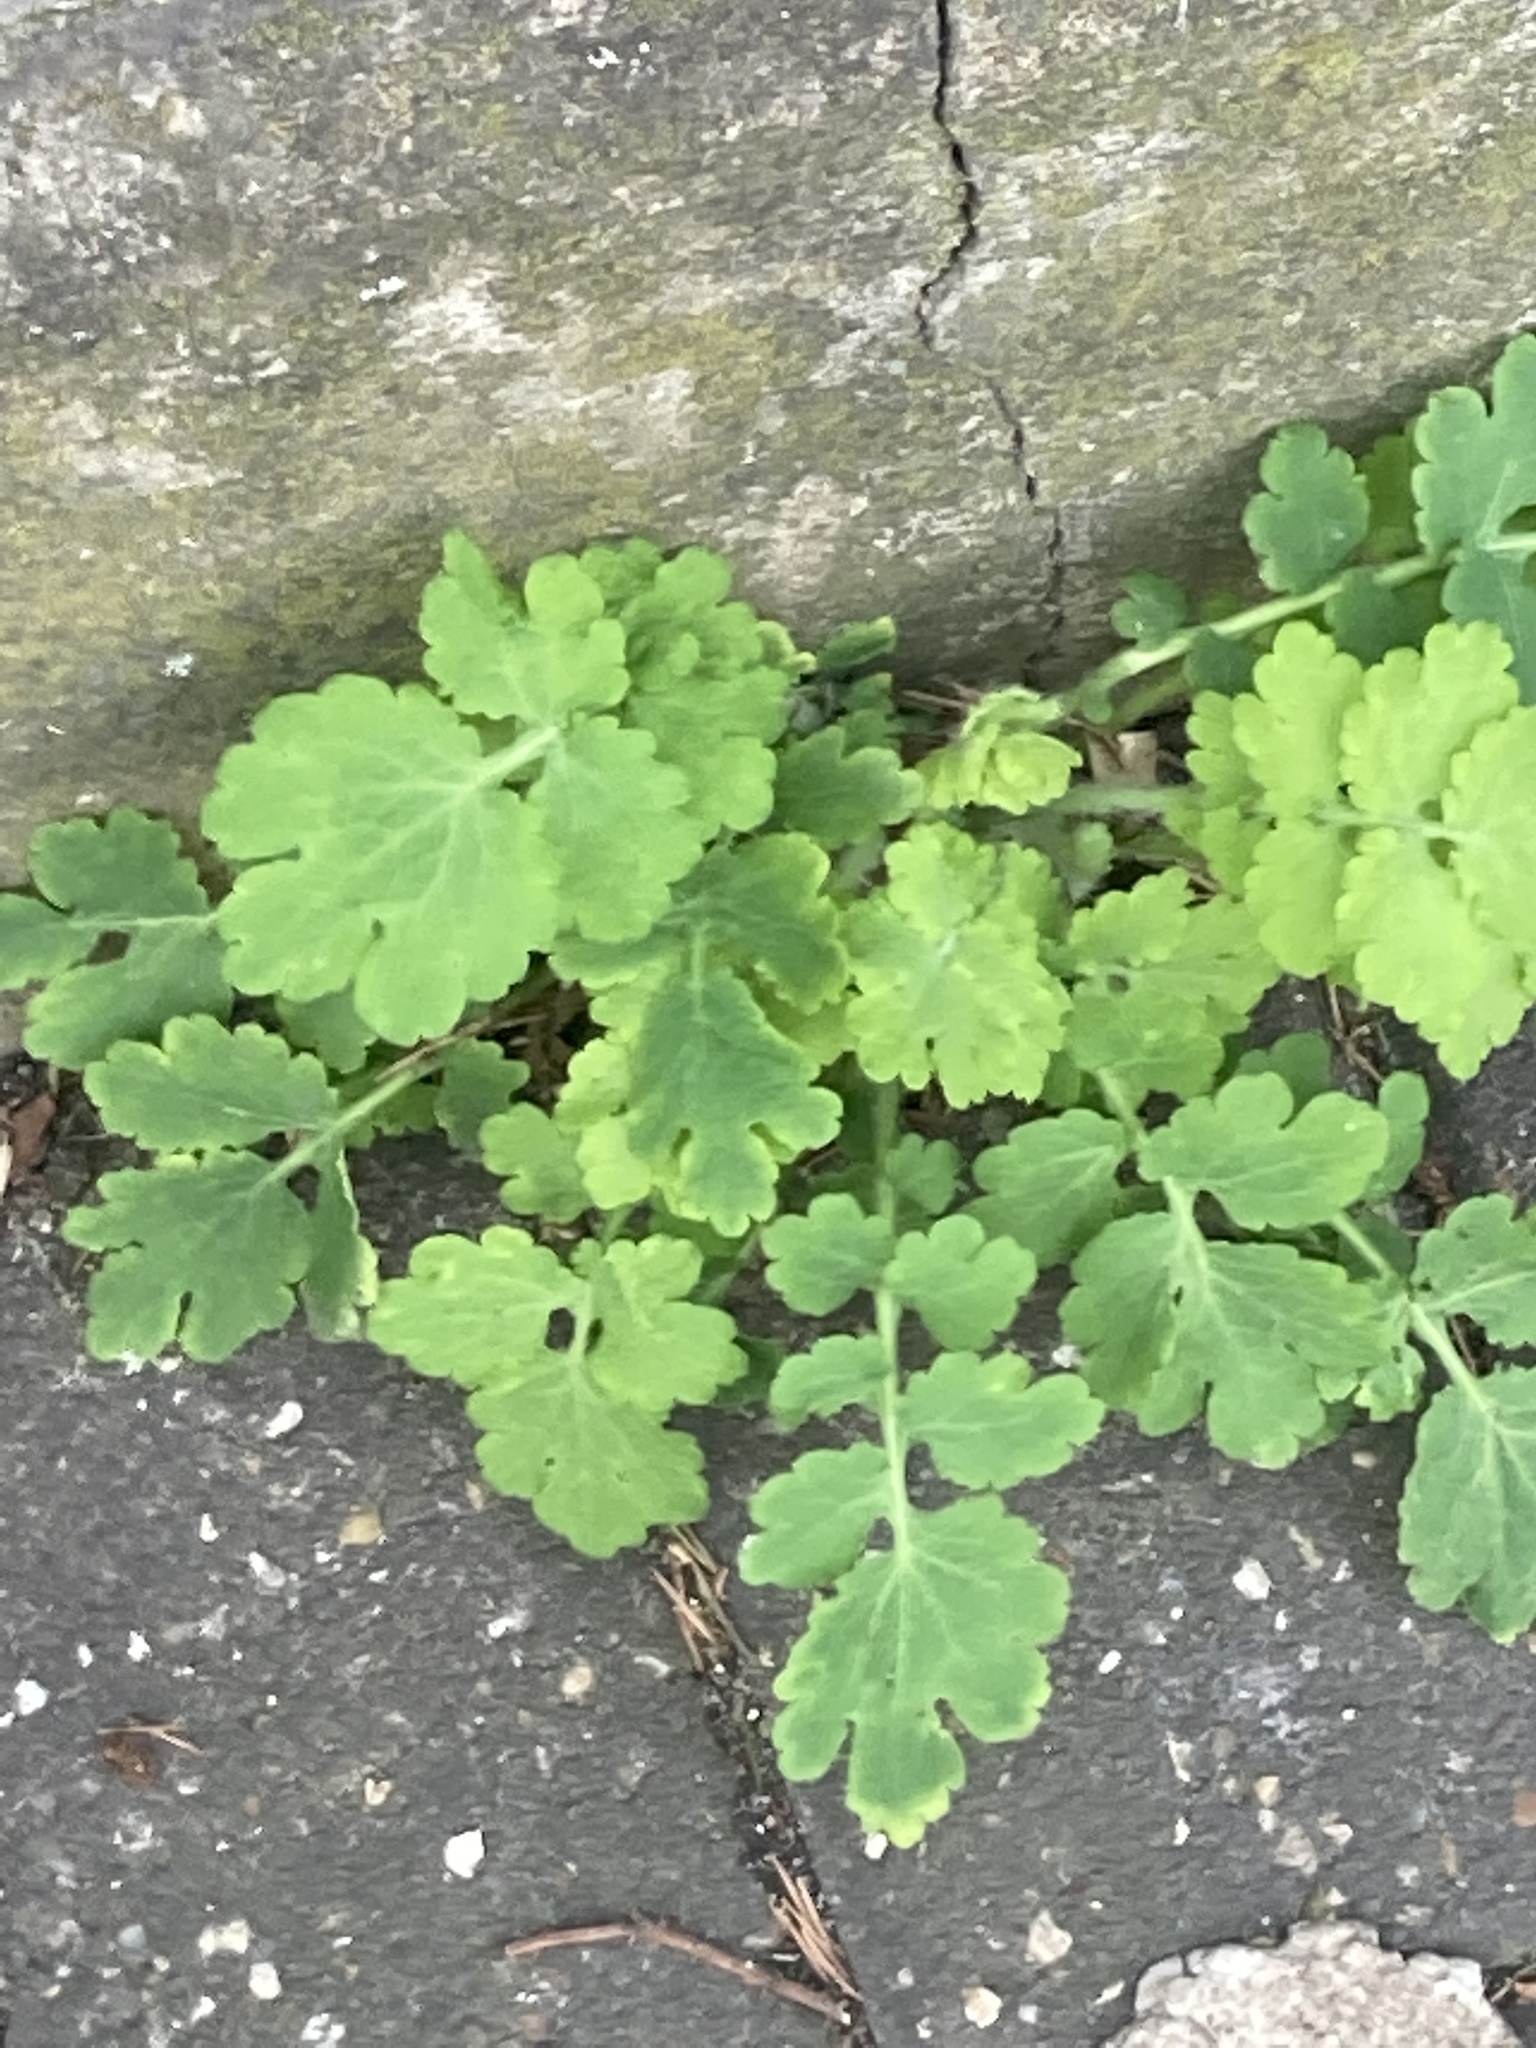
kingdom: Plantae
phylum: Tracheophyta
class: Magnoliopsida
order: Ranunculales
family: Papaveraceae
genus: Chelidonium
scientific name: Chelidonium majus
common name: Greater celandine
